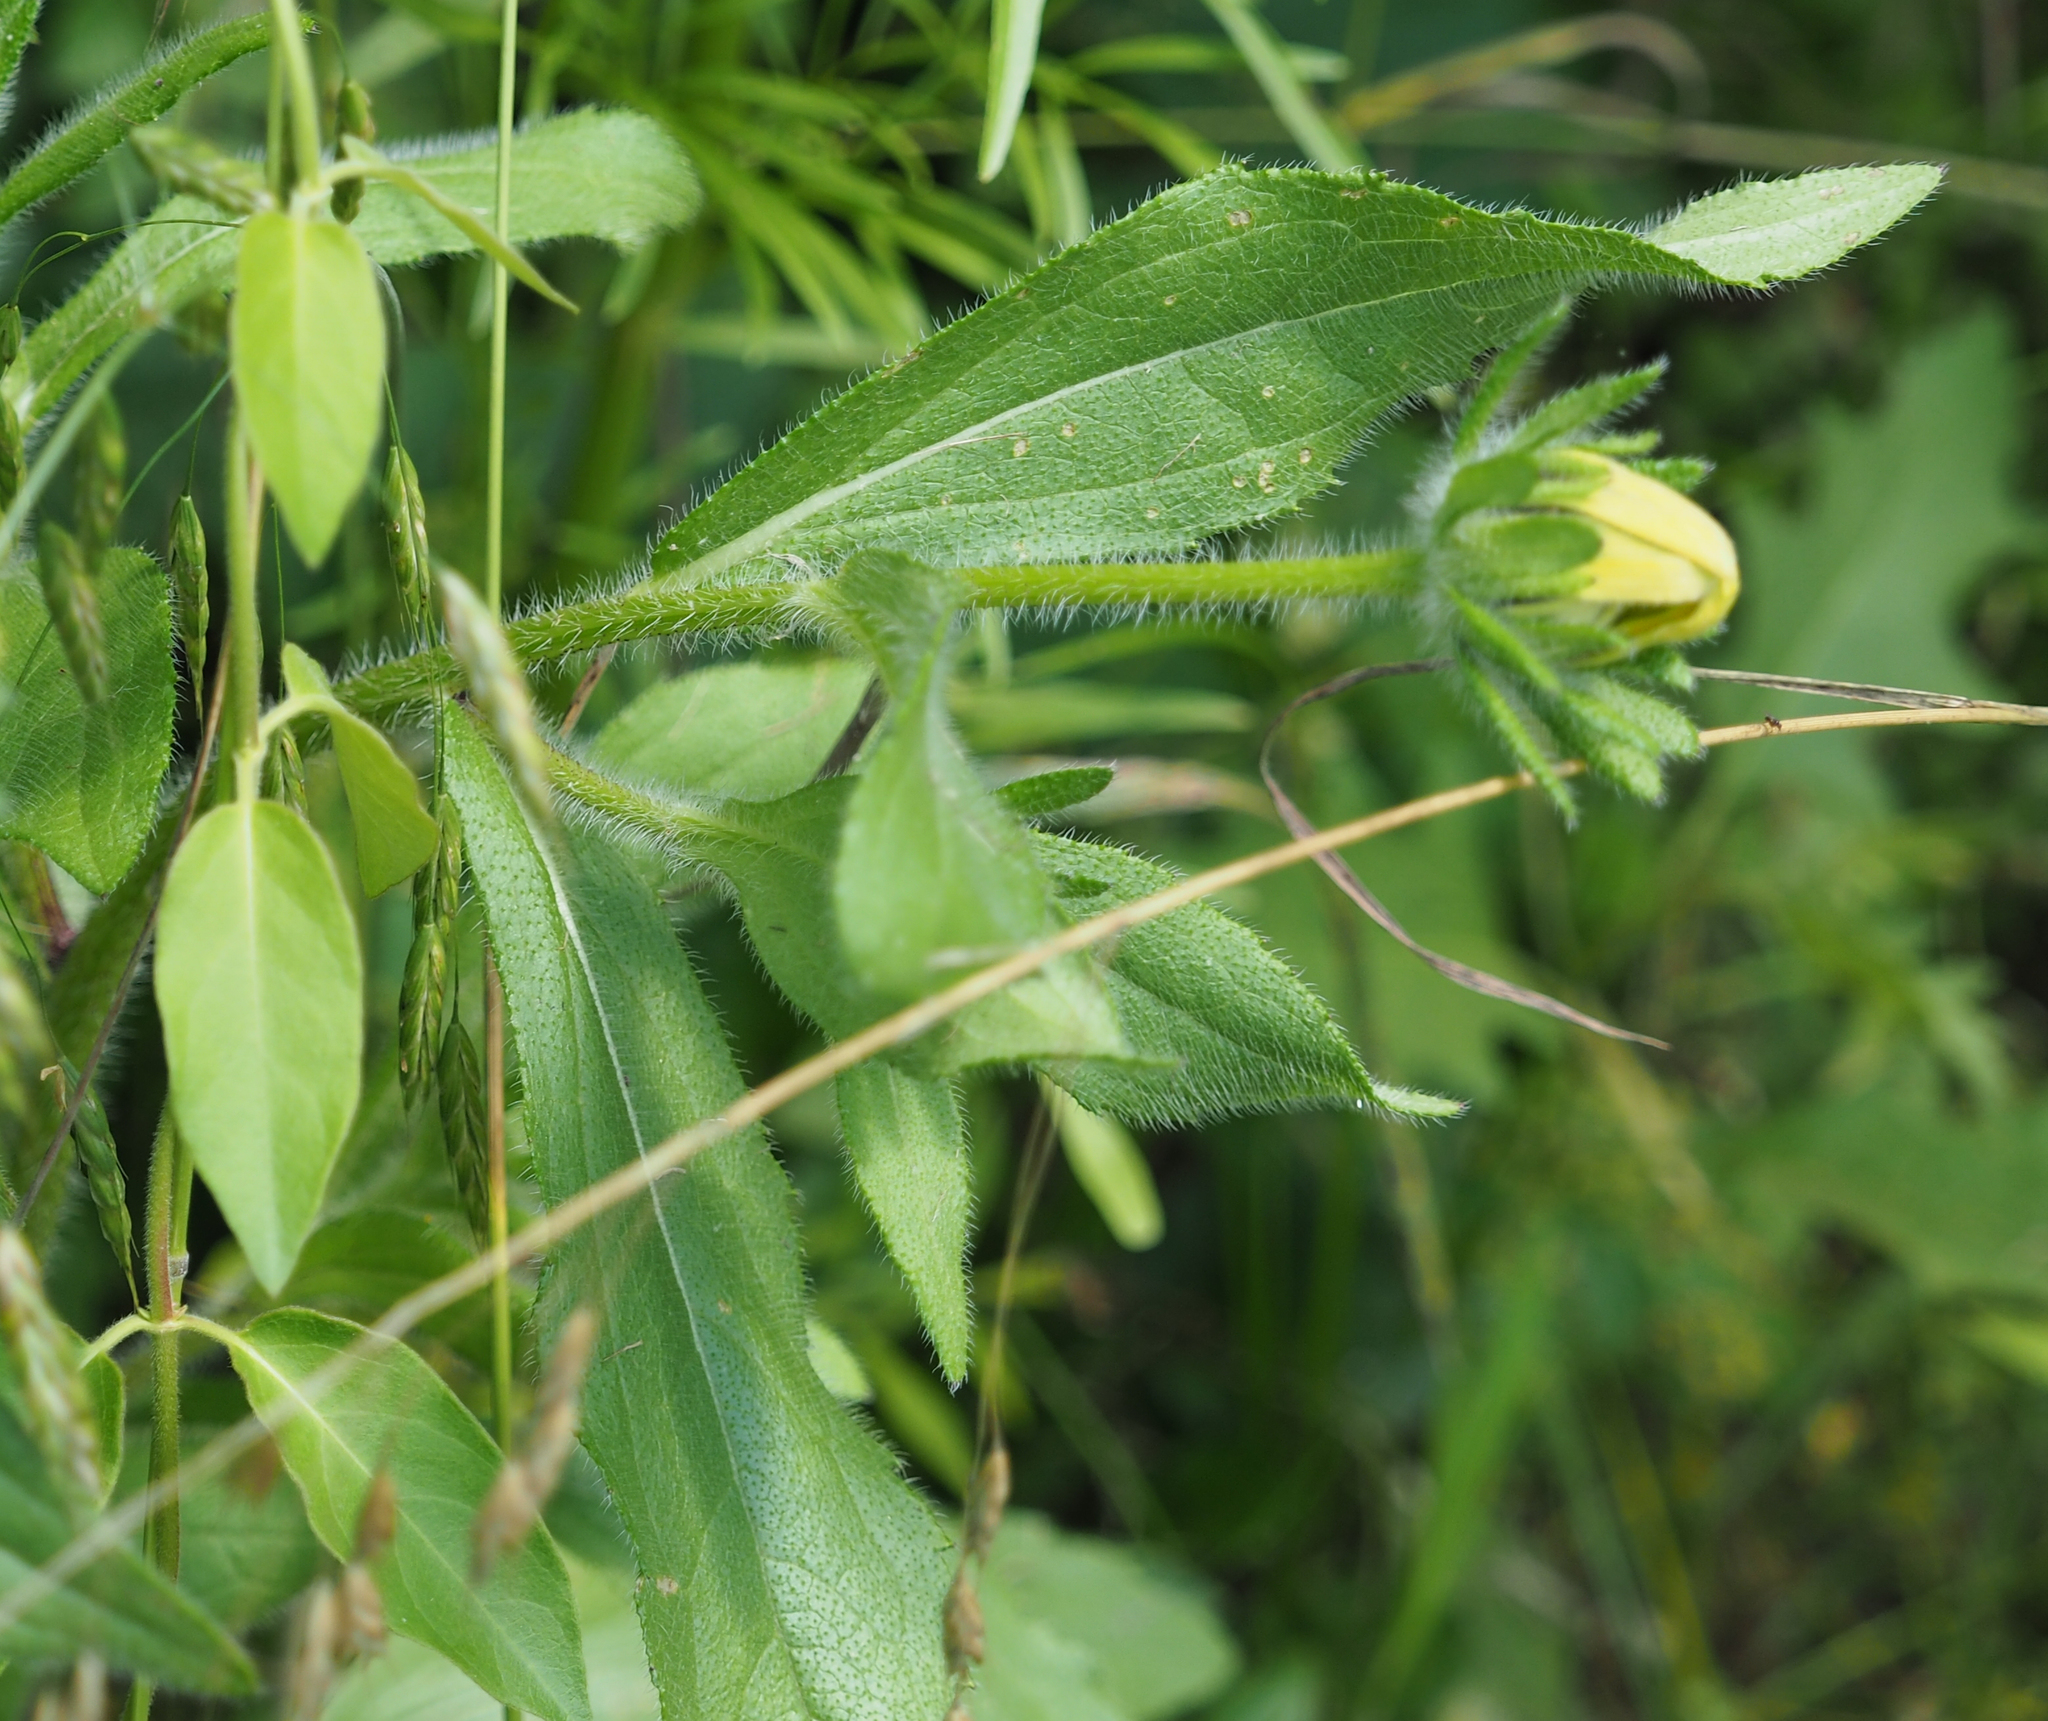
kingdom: Plantae
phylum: Tracheophyta
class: Magnoliopsida
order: Asterales
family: Asteraceae
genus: Rudbeckia
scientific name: Rudbeckia hirta
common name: Black-eyed-susan
